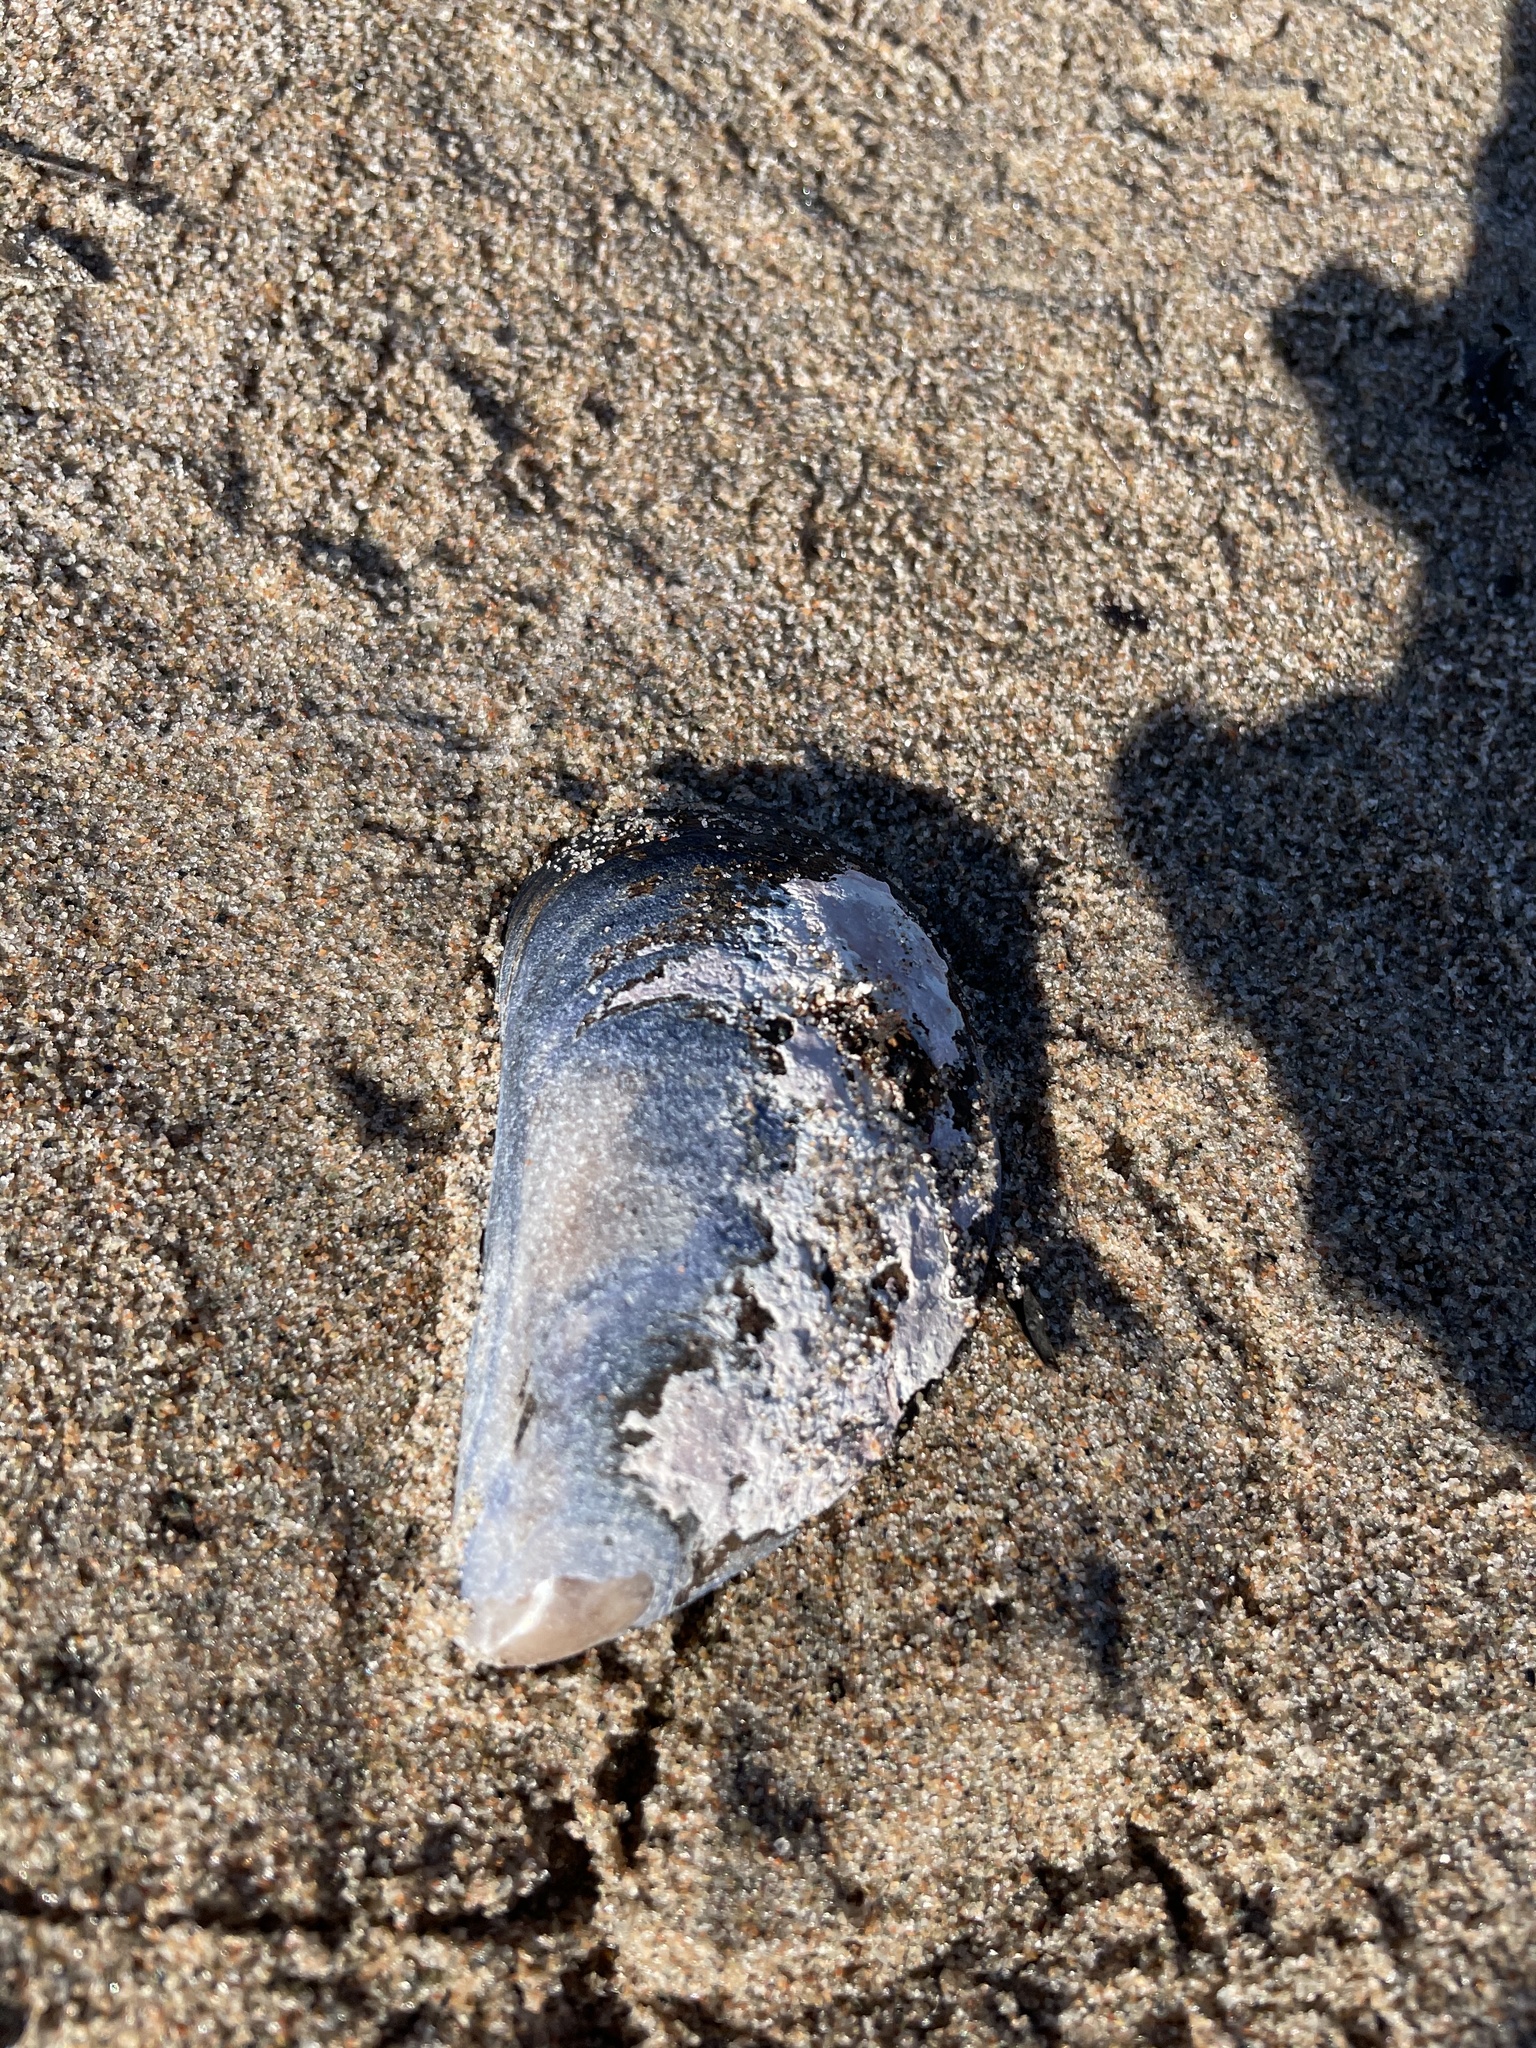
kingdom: Animalia
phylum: Mollusca
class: Bivalvia
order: Mytilida
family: Mytilidae
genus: Mytilus
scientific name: Mytilus edulis
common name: Blue mussel
